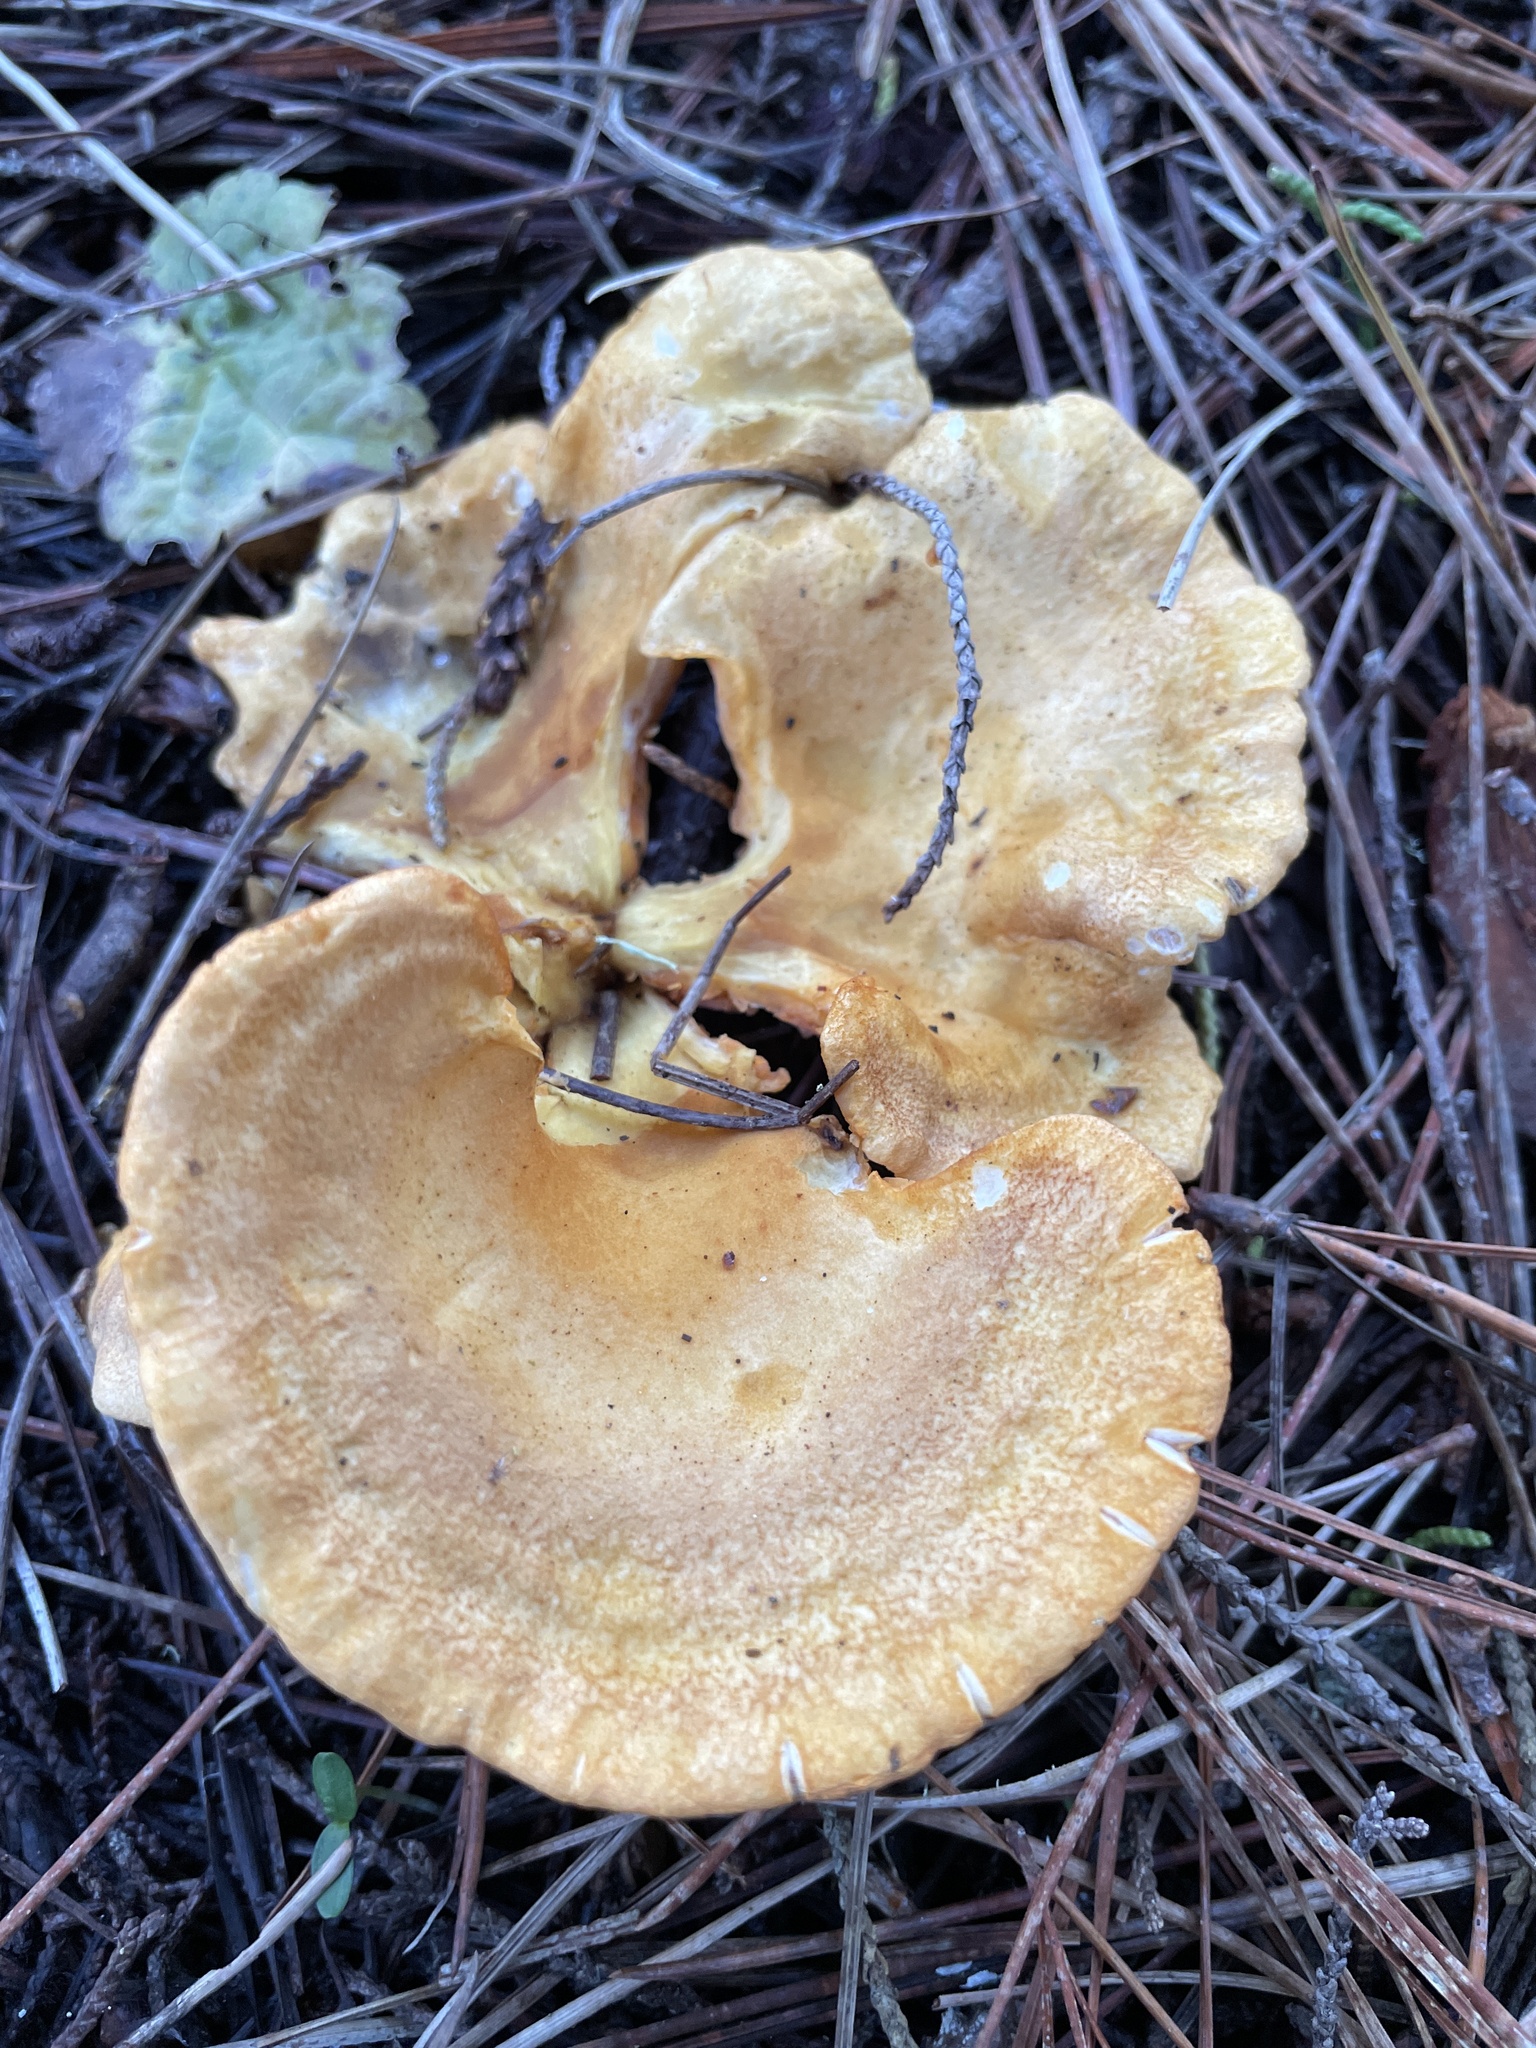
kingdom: Fungi
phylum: Basidiomycota
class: Agaricomycetes
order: Boletales
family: Hygrophoropsidaceae
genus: Hygrophoropsis
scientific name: Hygrophoropsis aurantiaca
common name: False chanterelle
